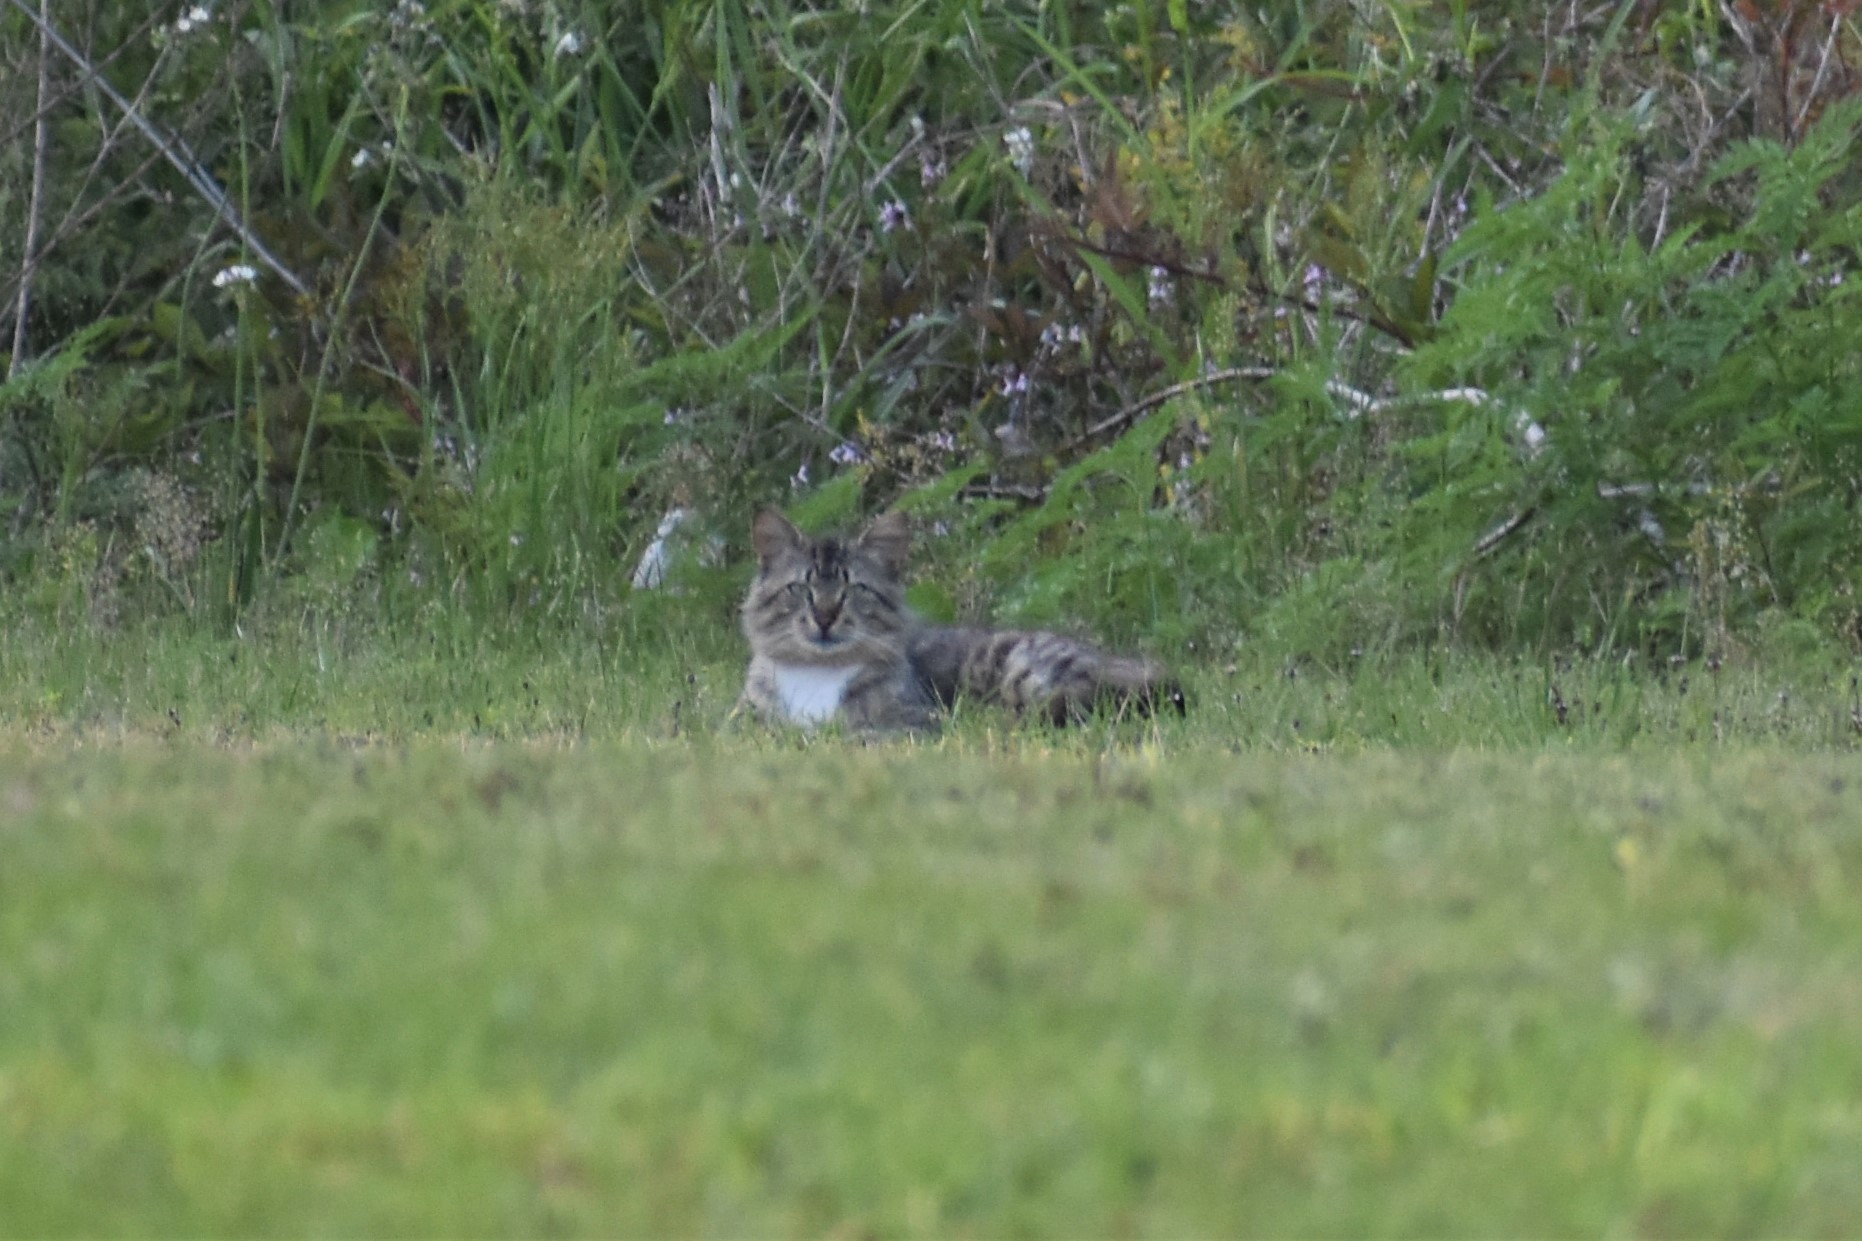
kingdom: Animalia
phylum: Chordata
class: Mammalia
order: Carnivora
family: Felidae
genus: Felis
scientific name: Felis catus
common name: Domestic cat
